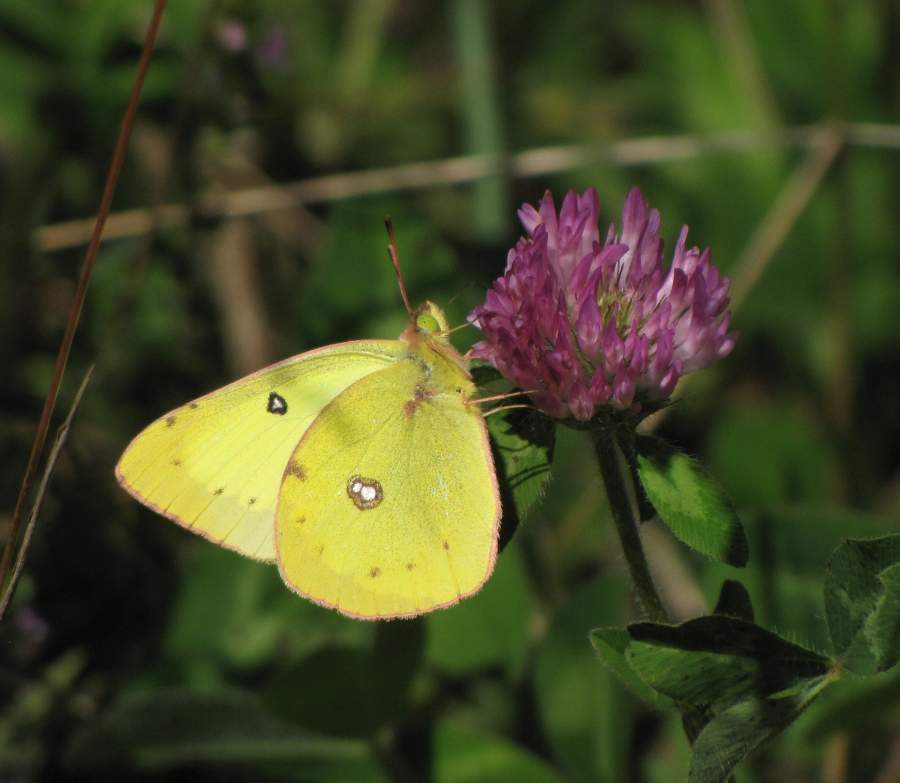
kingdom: Animalia
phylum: Arthropoda
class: Insecta
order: Lepidoptera
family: Pieridae
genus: Colias
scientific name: Colias philodice
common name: Clouded sulphur
